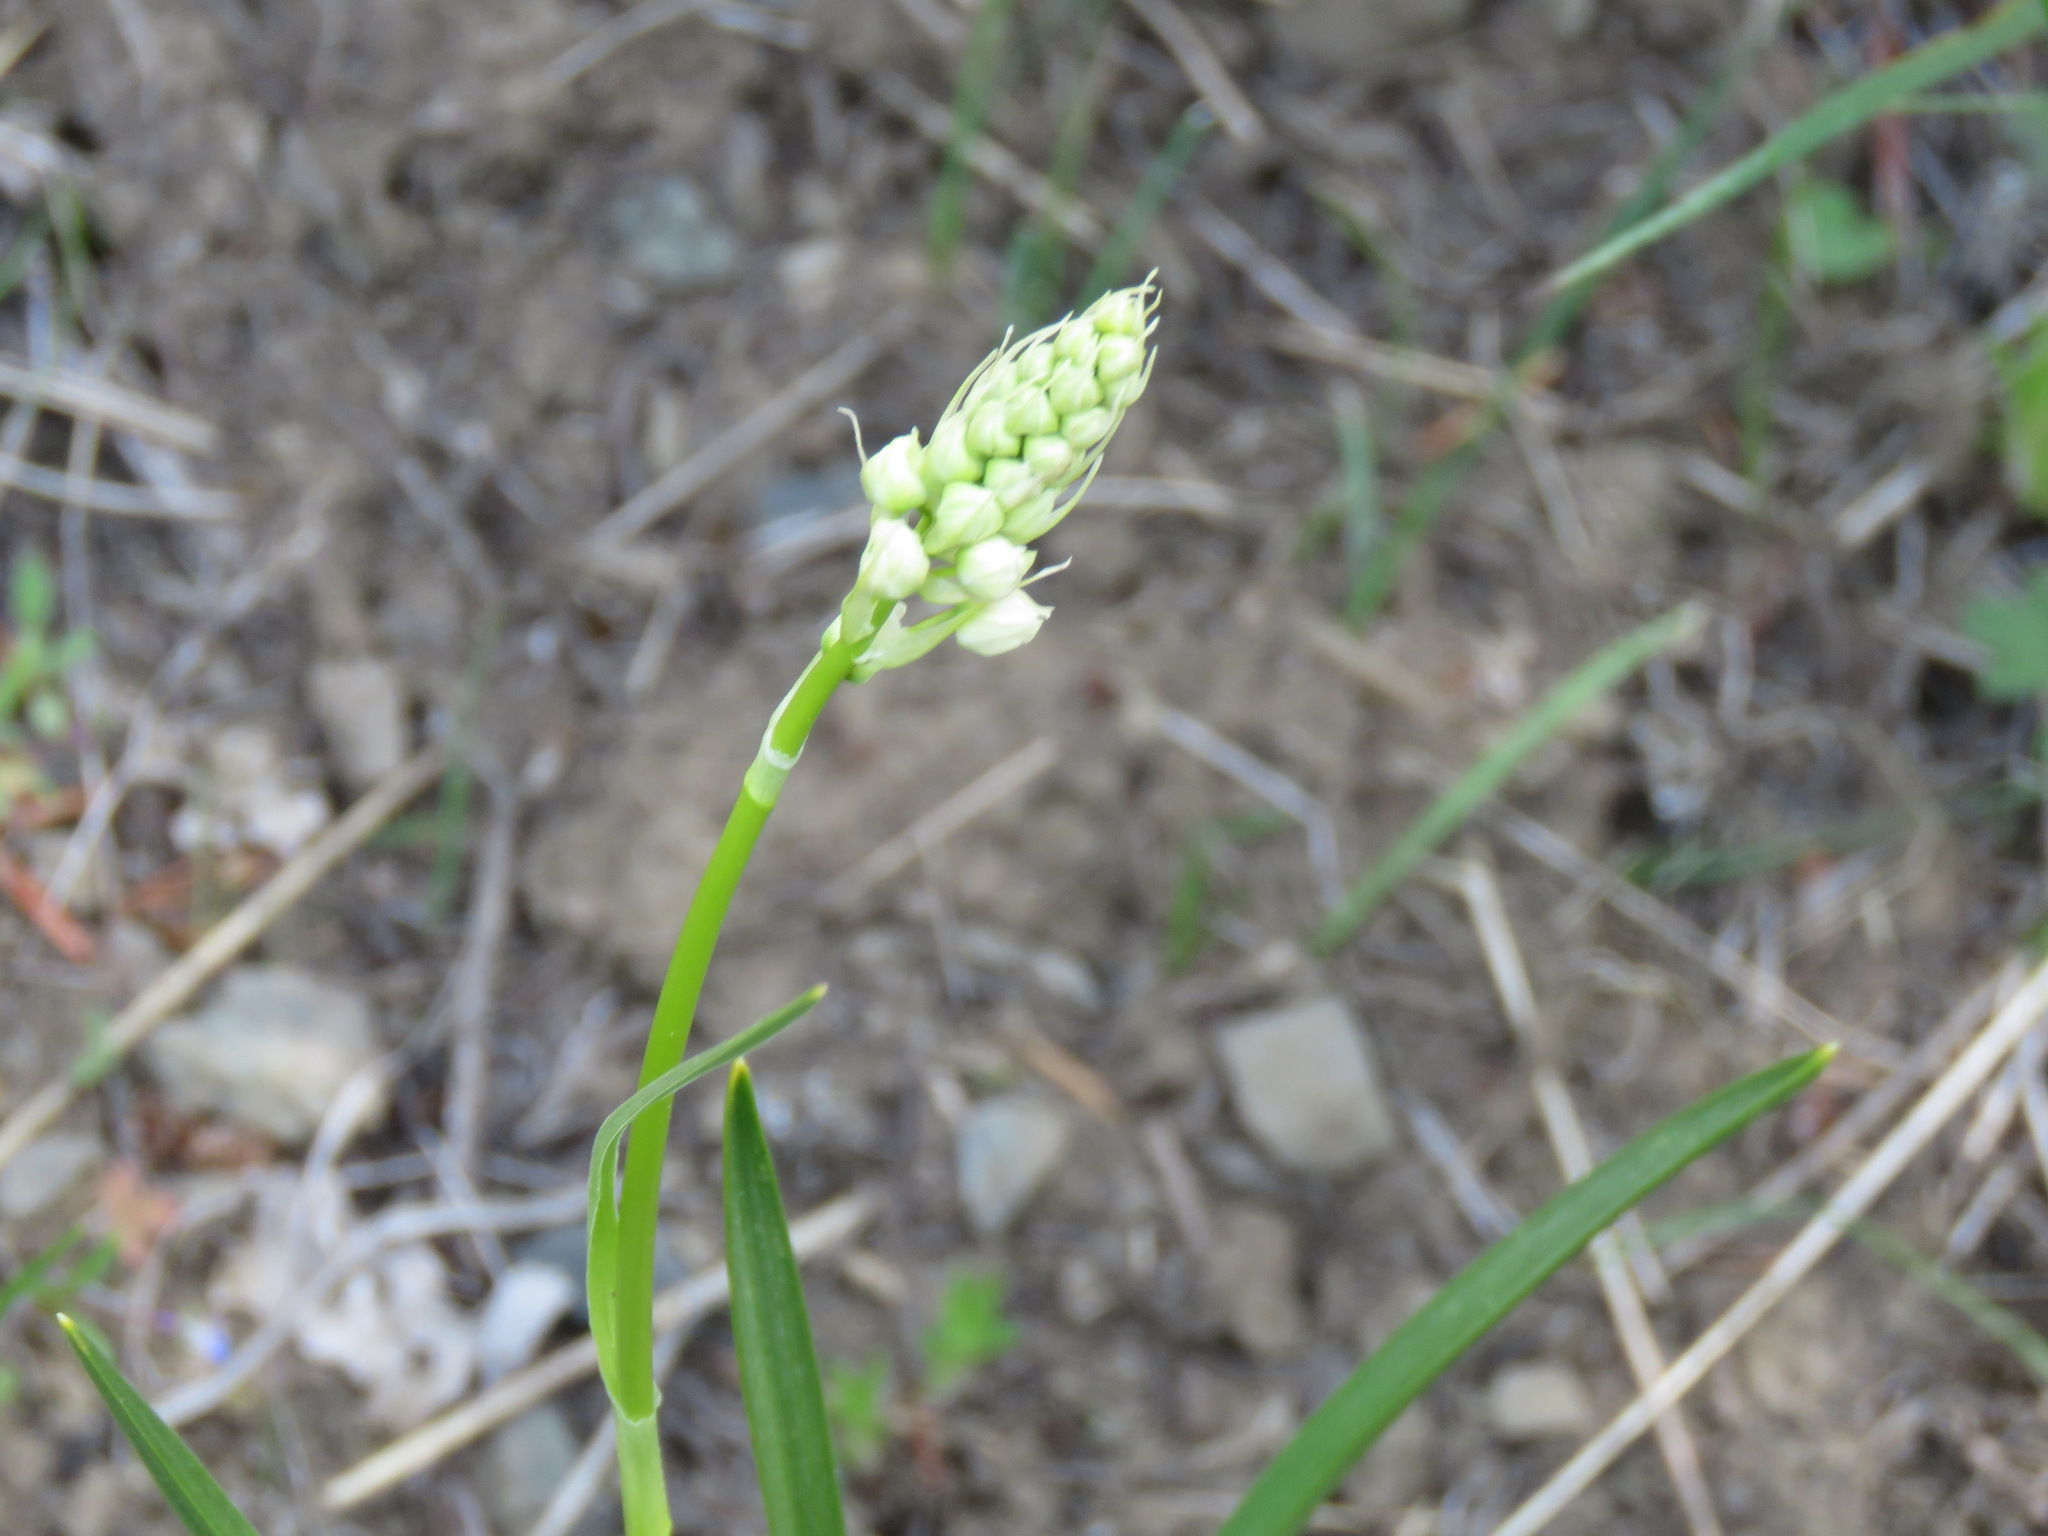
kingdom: Plantae
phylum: Tracheophyta
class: Liliopsida
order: Liliales
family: Melanthiaceae
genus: Toxicoscordion
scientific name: Toxicoscordion venenosum
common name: Meadow death camas
